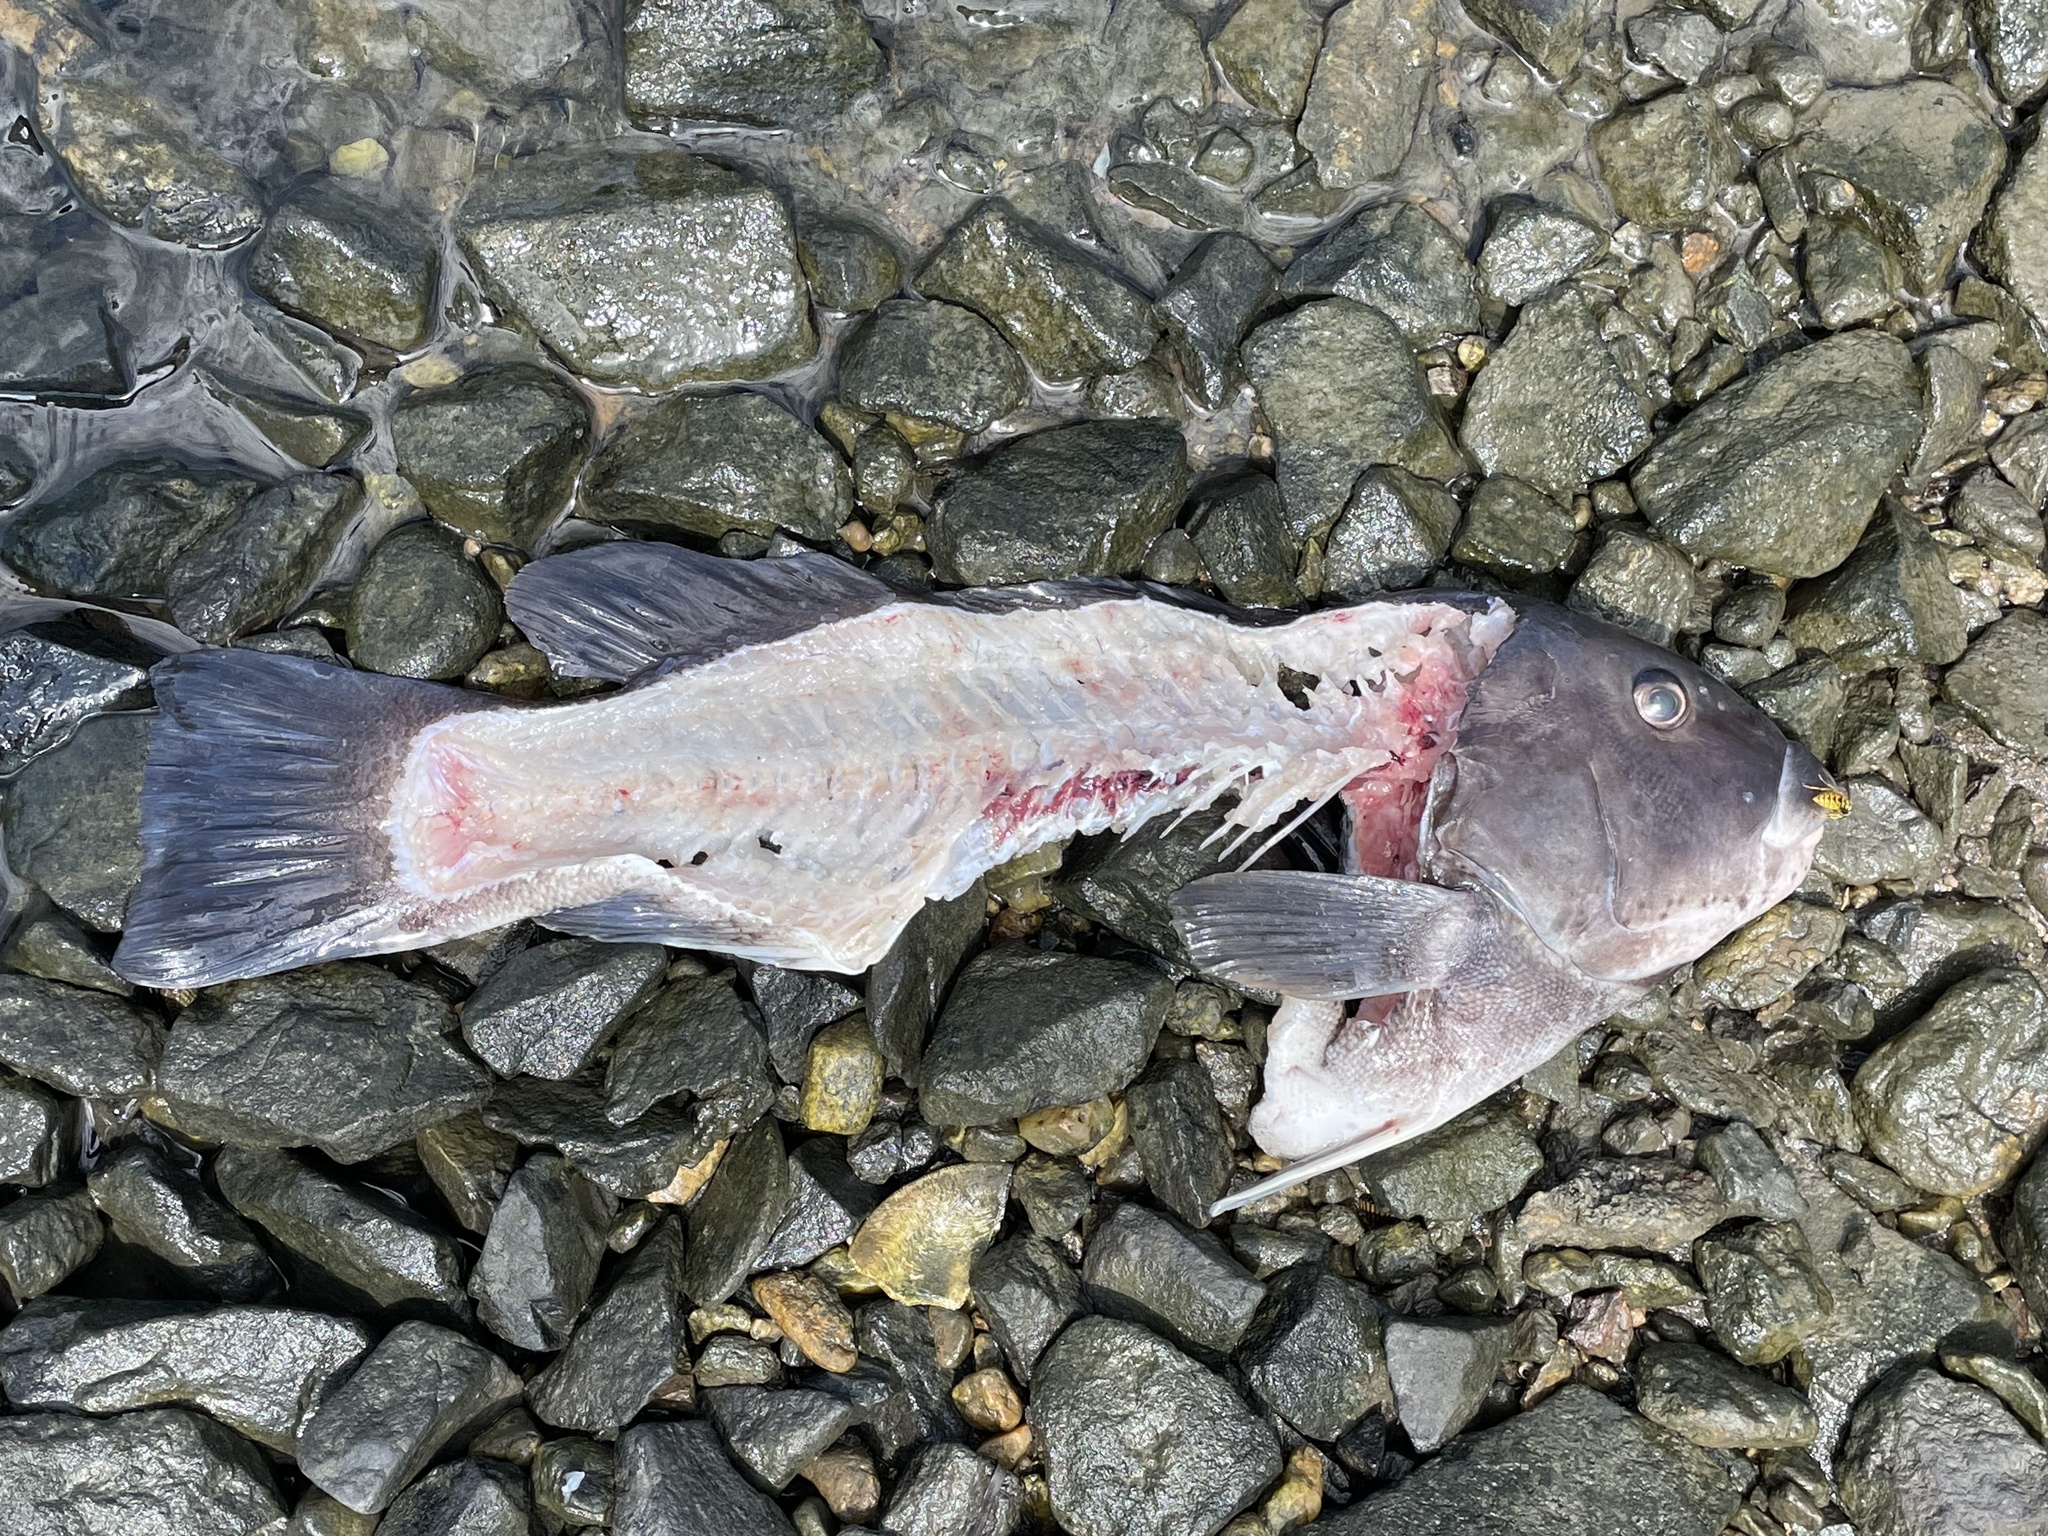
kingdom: Animalia
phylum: Chordata
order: Perciformes
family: Labridae
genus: Tautoga
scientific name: Tautoga onitis
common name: Tautog
